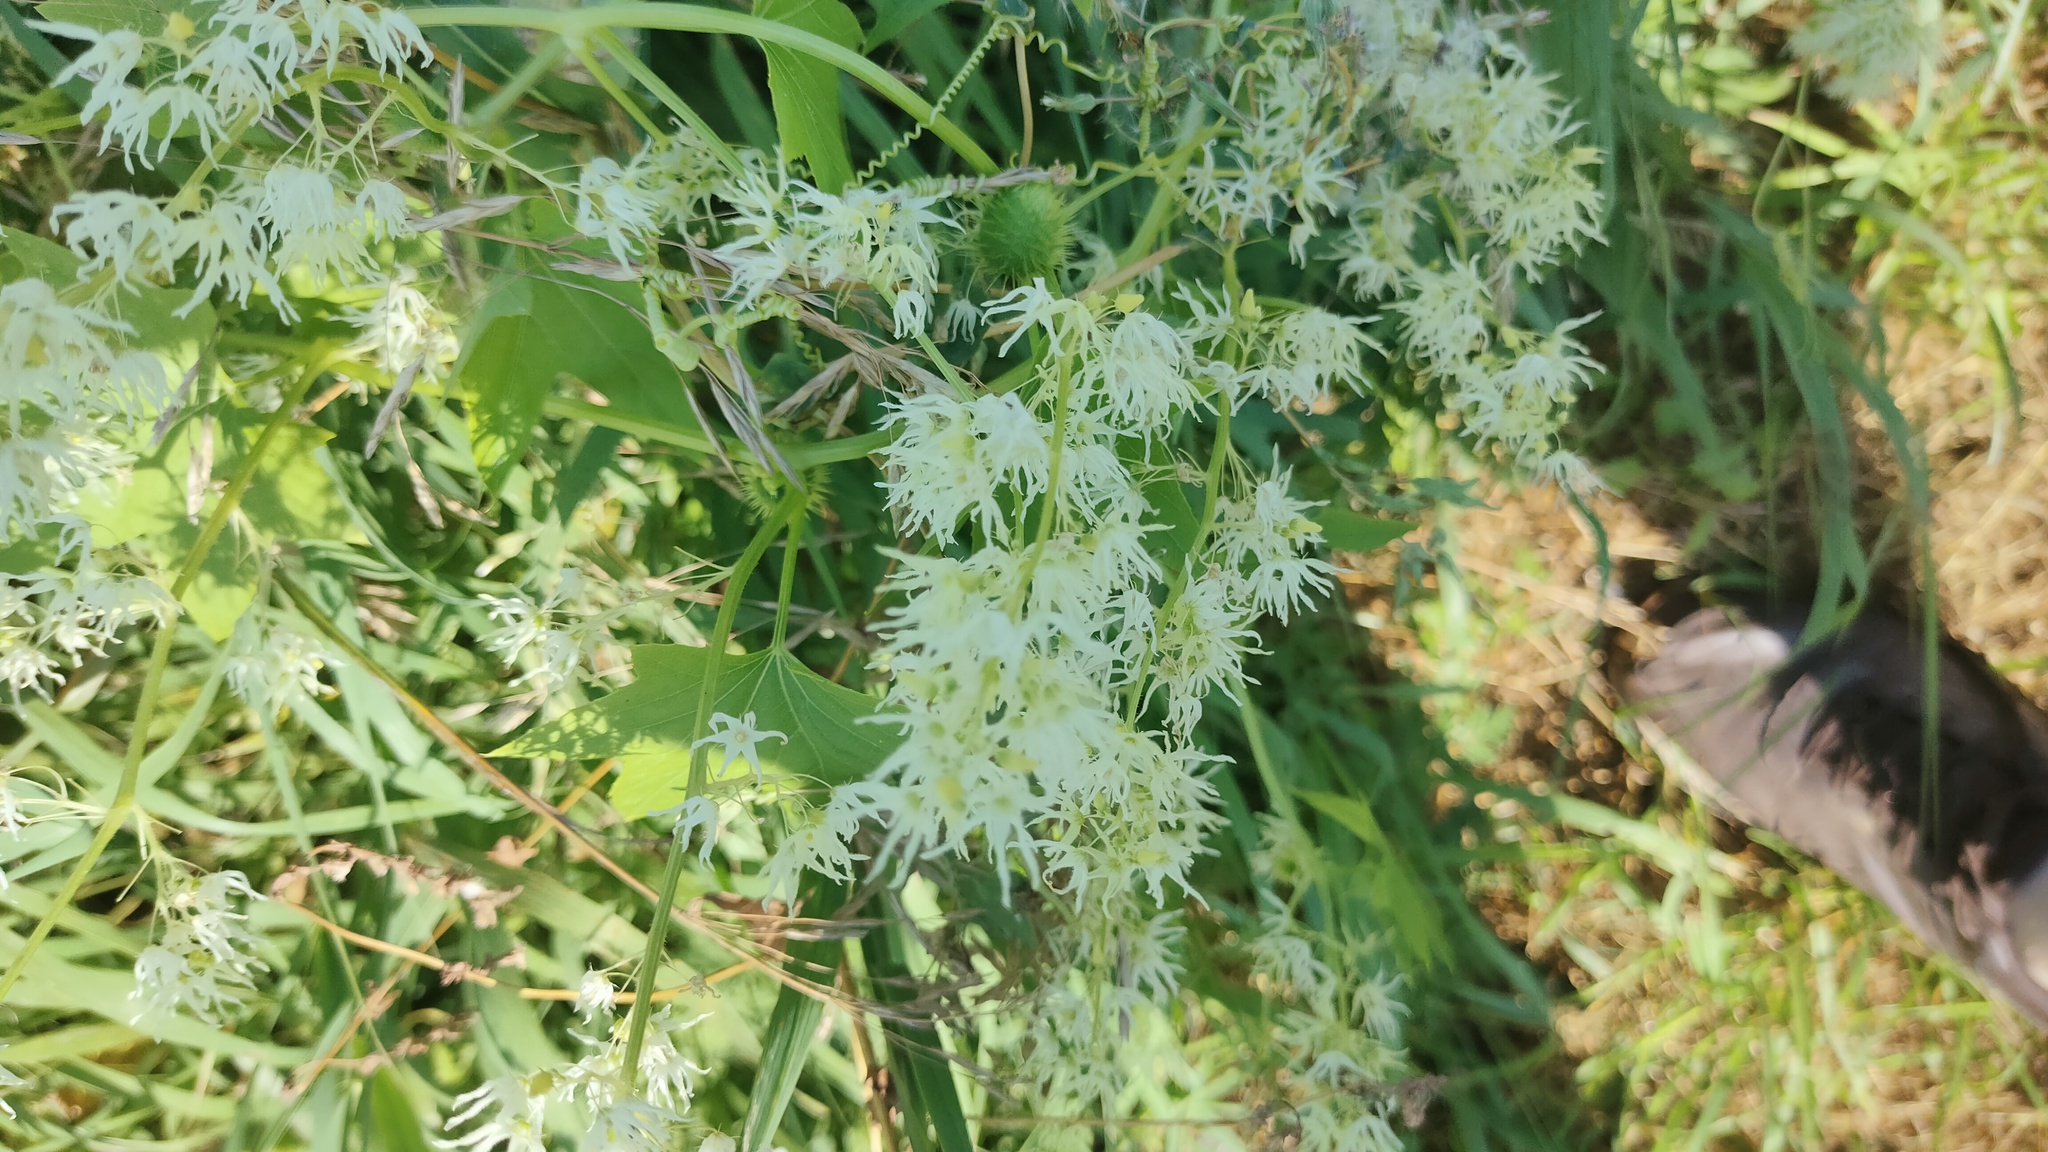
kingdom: Plantae
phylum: Tracheophyta
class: Magnoliopsida
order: Cucurbitales
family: Cucurbitaceae
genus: Echinocystis
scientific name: Echinocystis lobata
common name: Wild cucumber
